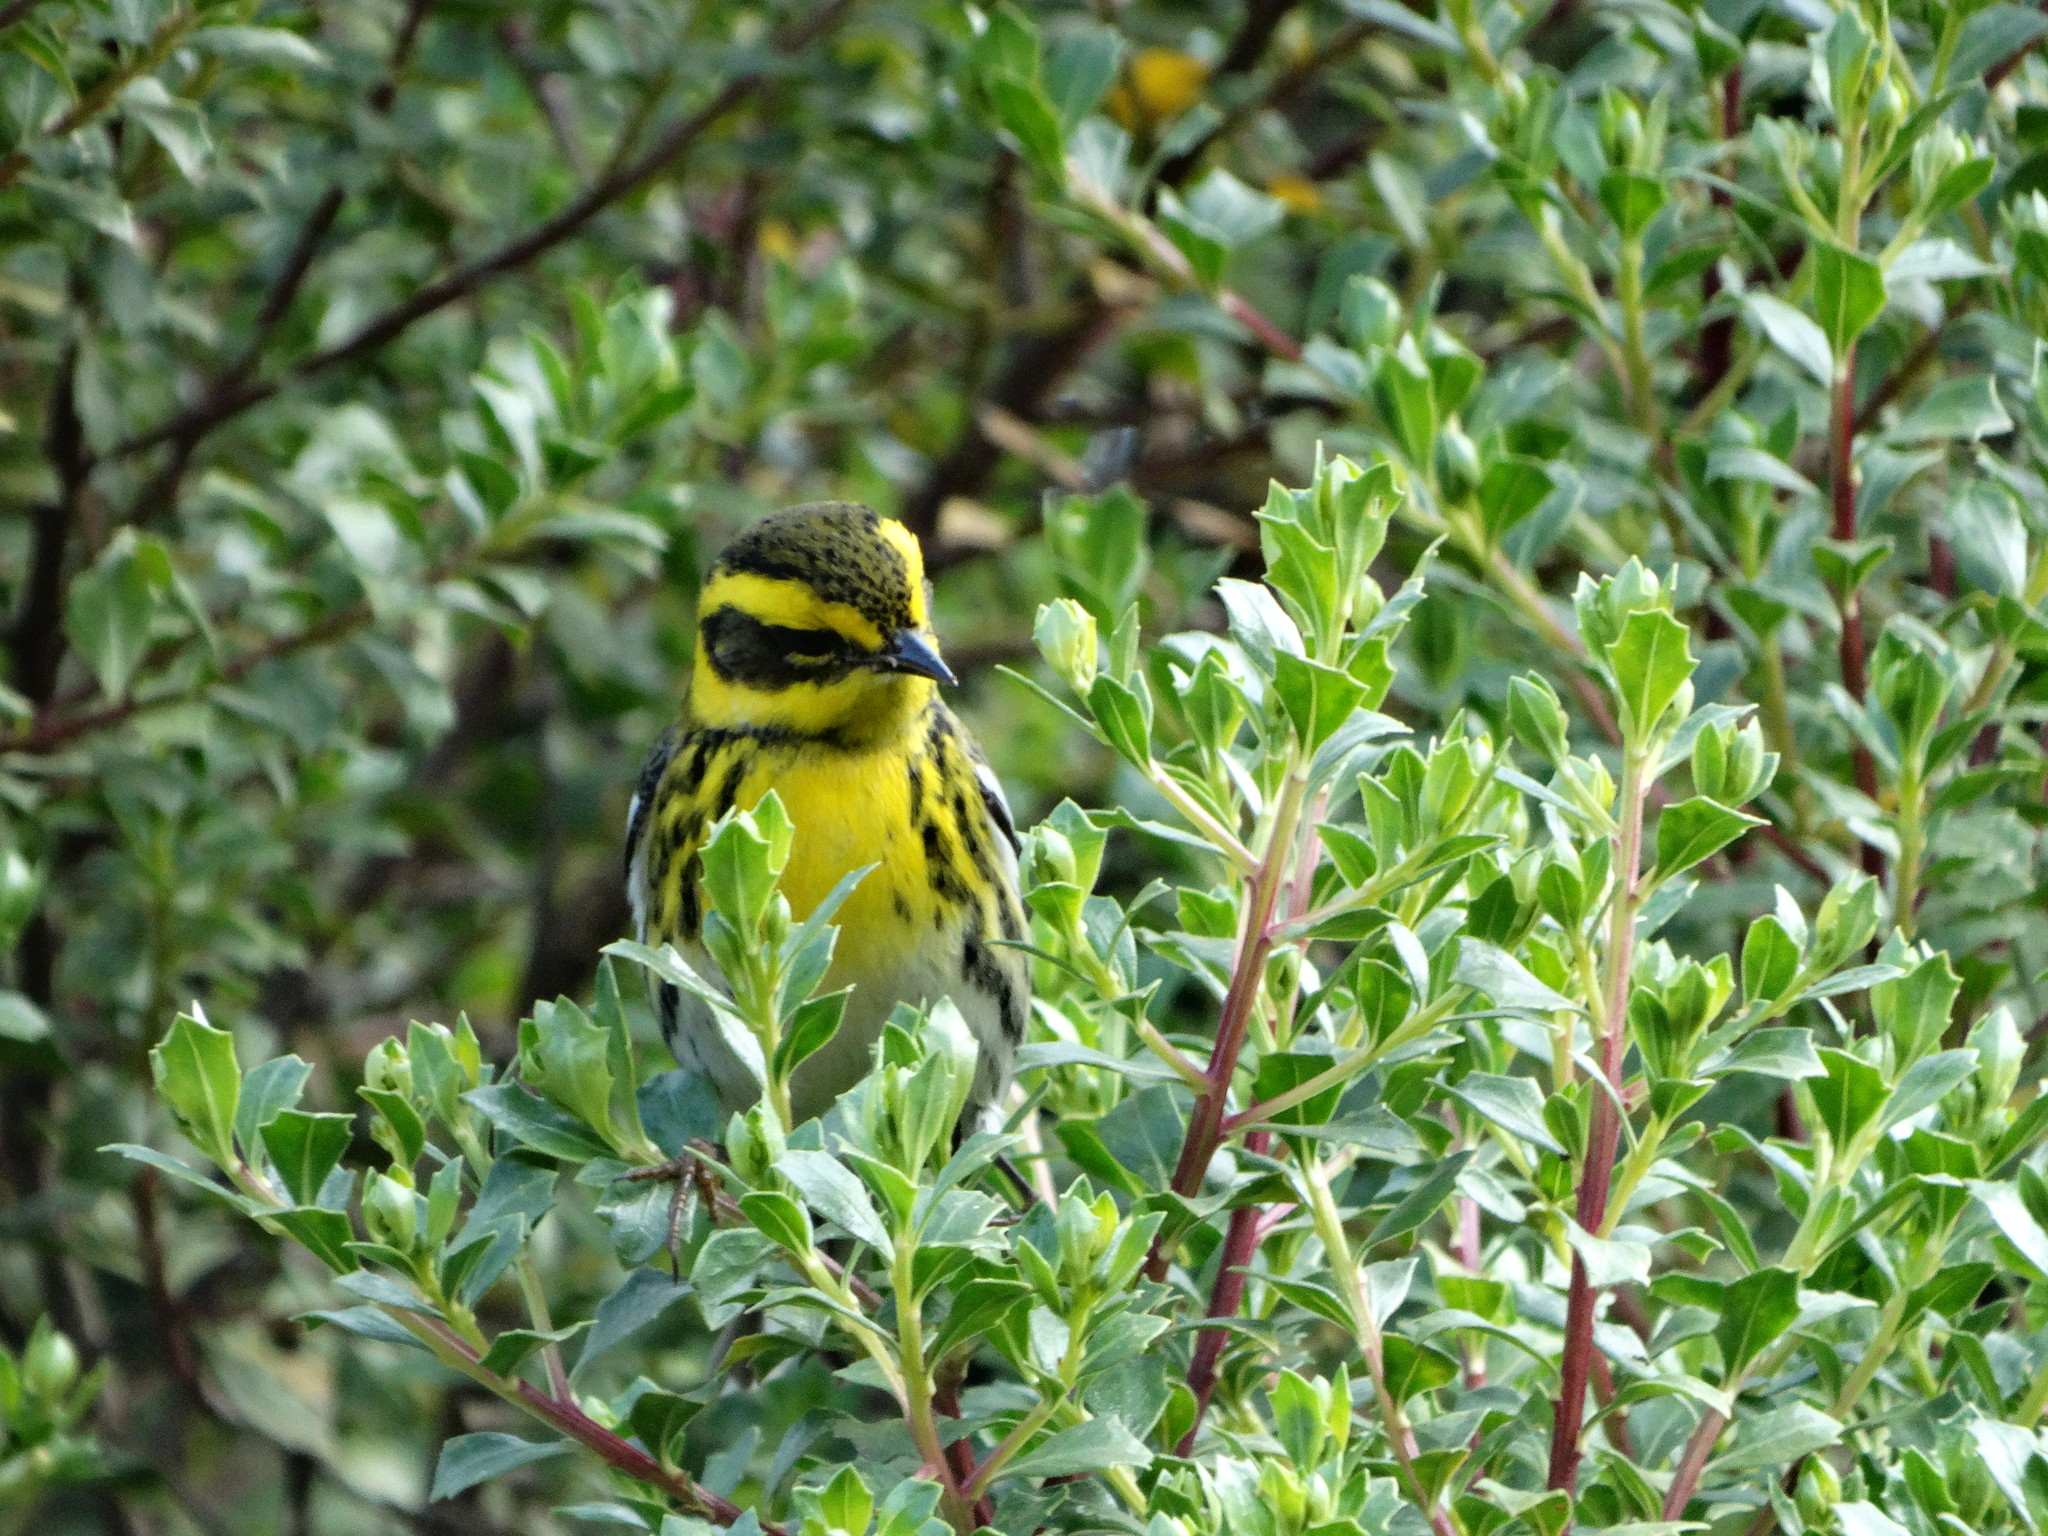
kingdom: Animalia
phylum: Chordata
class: Aves
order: Passeriformes
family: Parulidae
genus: Setophaga
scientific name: Setophaga townsendi
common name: Townsend's warbler
